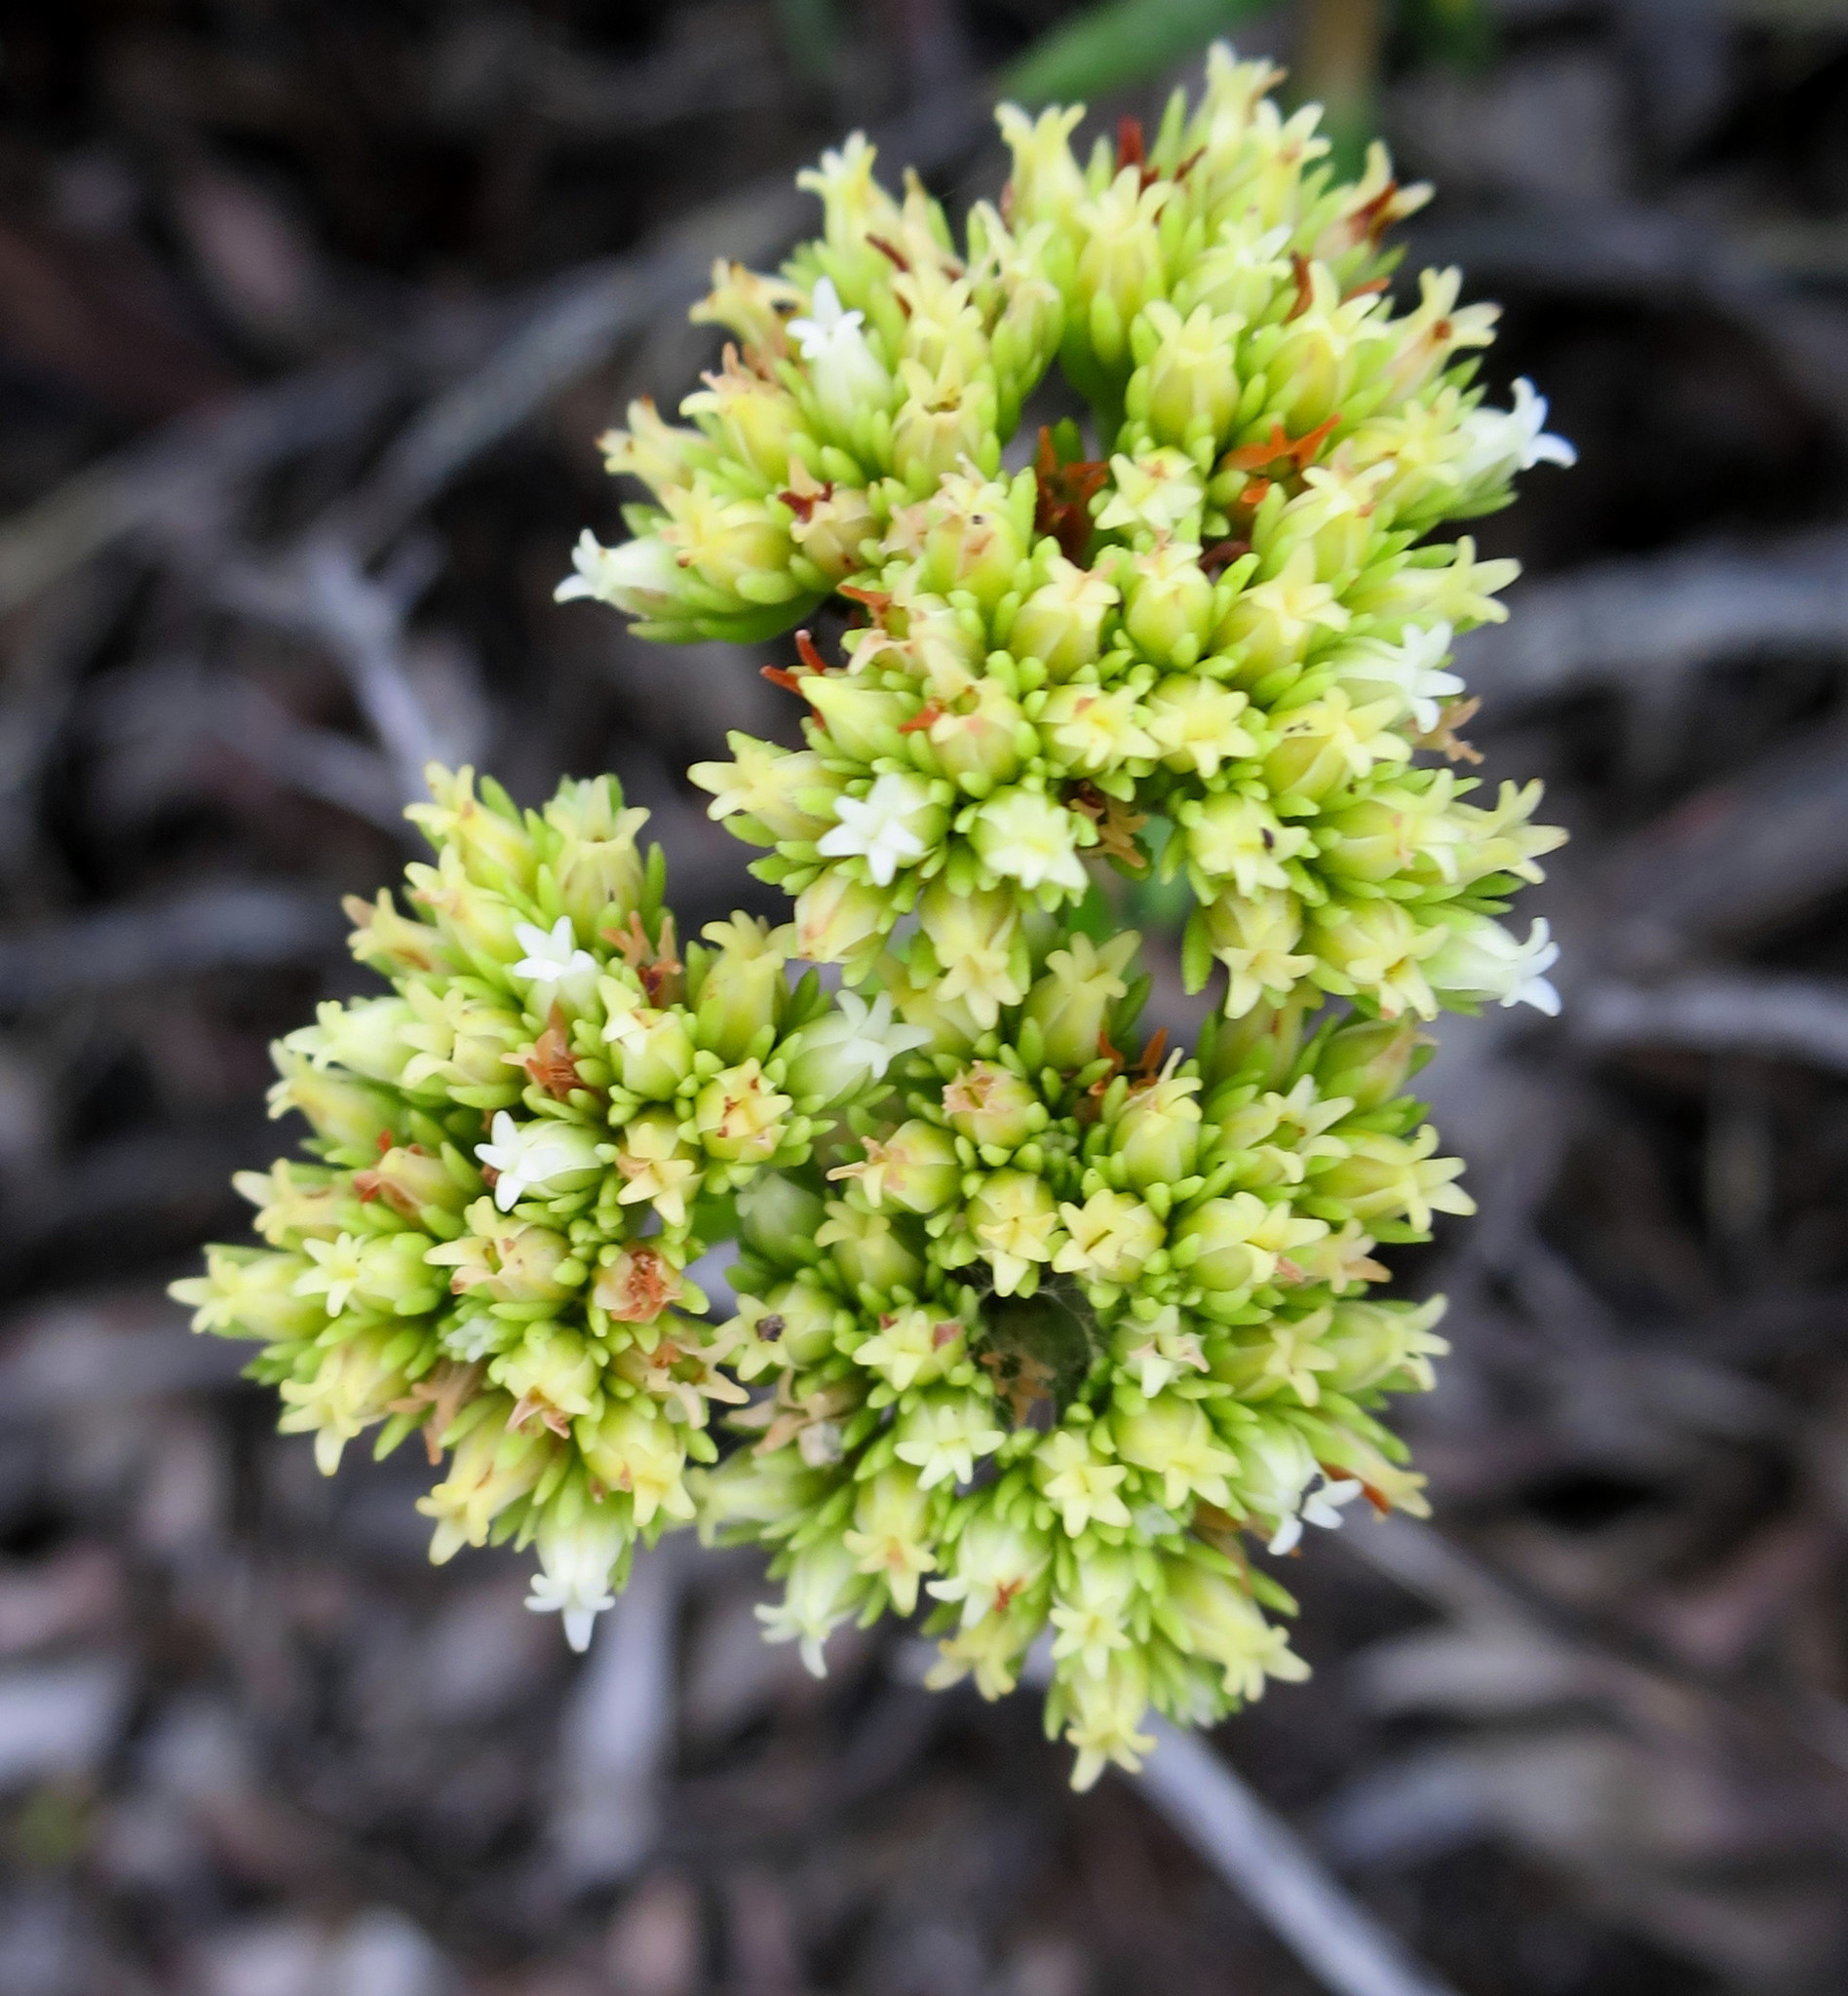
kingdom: Plantae
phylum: Tracheophyta
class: Magnoliopsida
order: Saxifragales
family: Crassulaceae
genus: Crassula
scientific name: Crassula subulata
